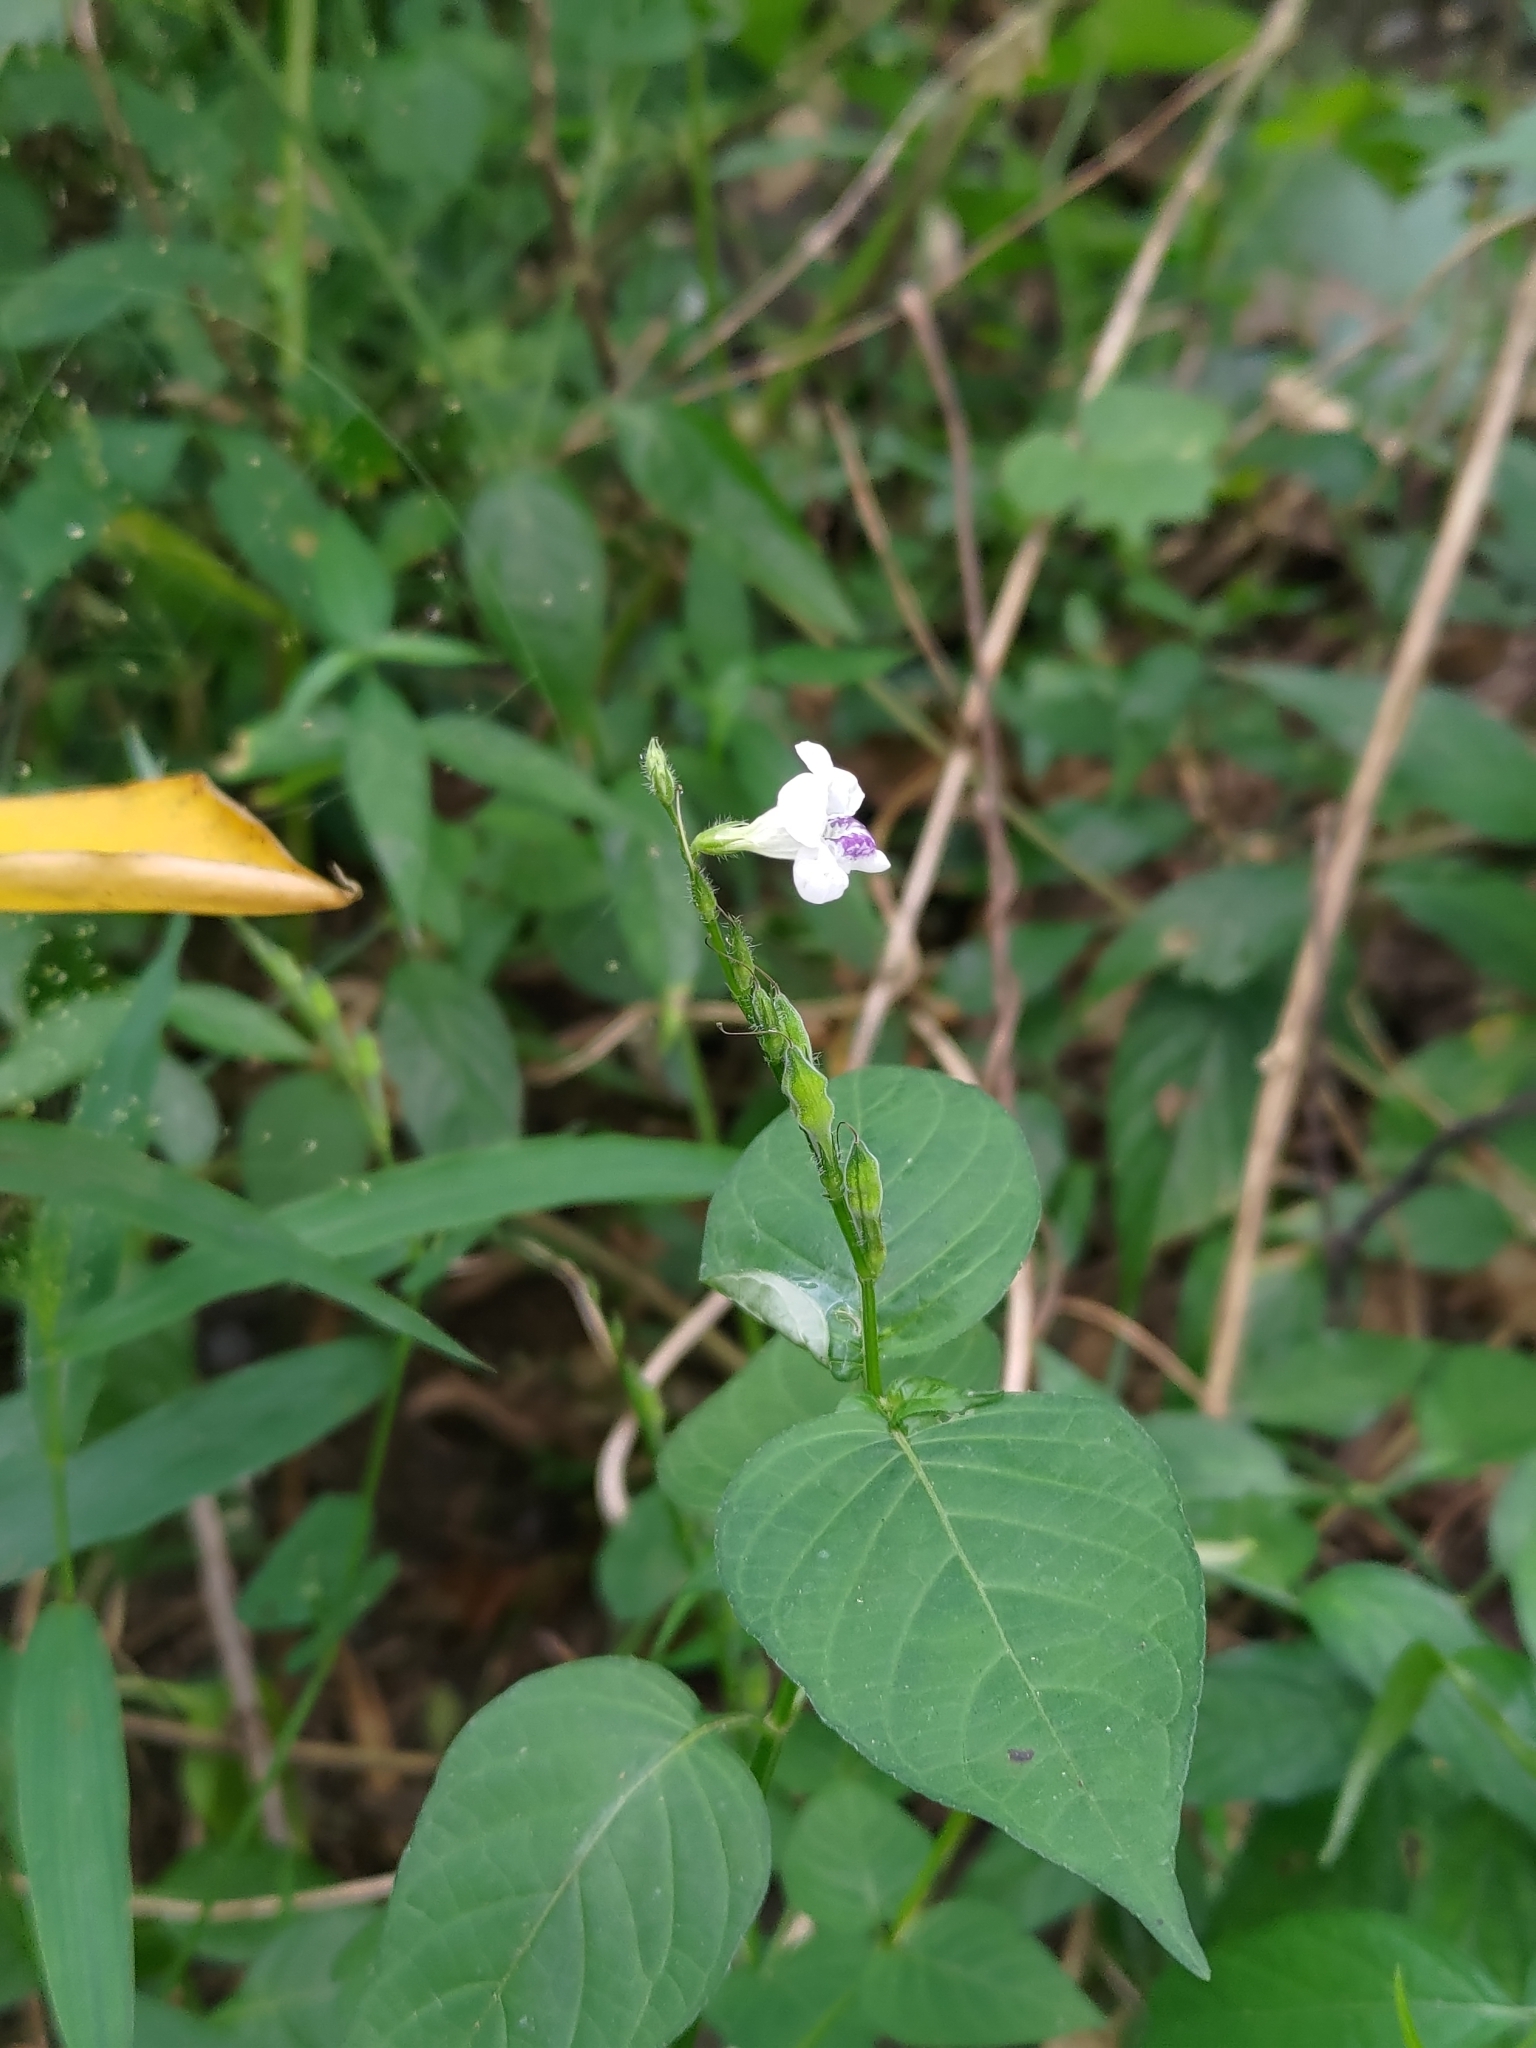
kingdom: Plantae
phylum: Tracheophyta
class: Magnoliopsida
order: Lamiales
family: Acanthaceae
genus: Asystasia
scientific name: Asystasia intrusa
